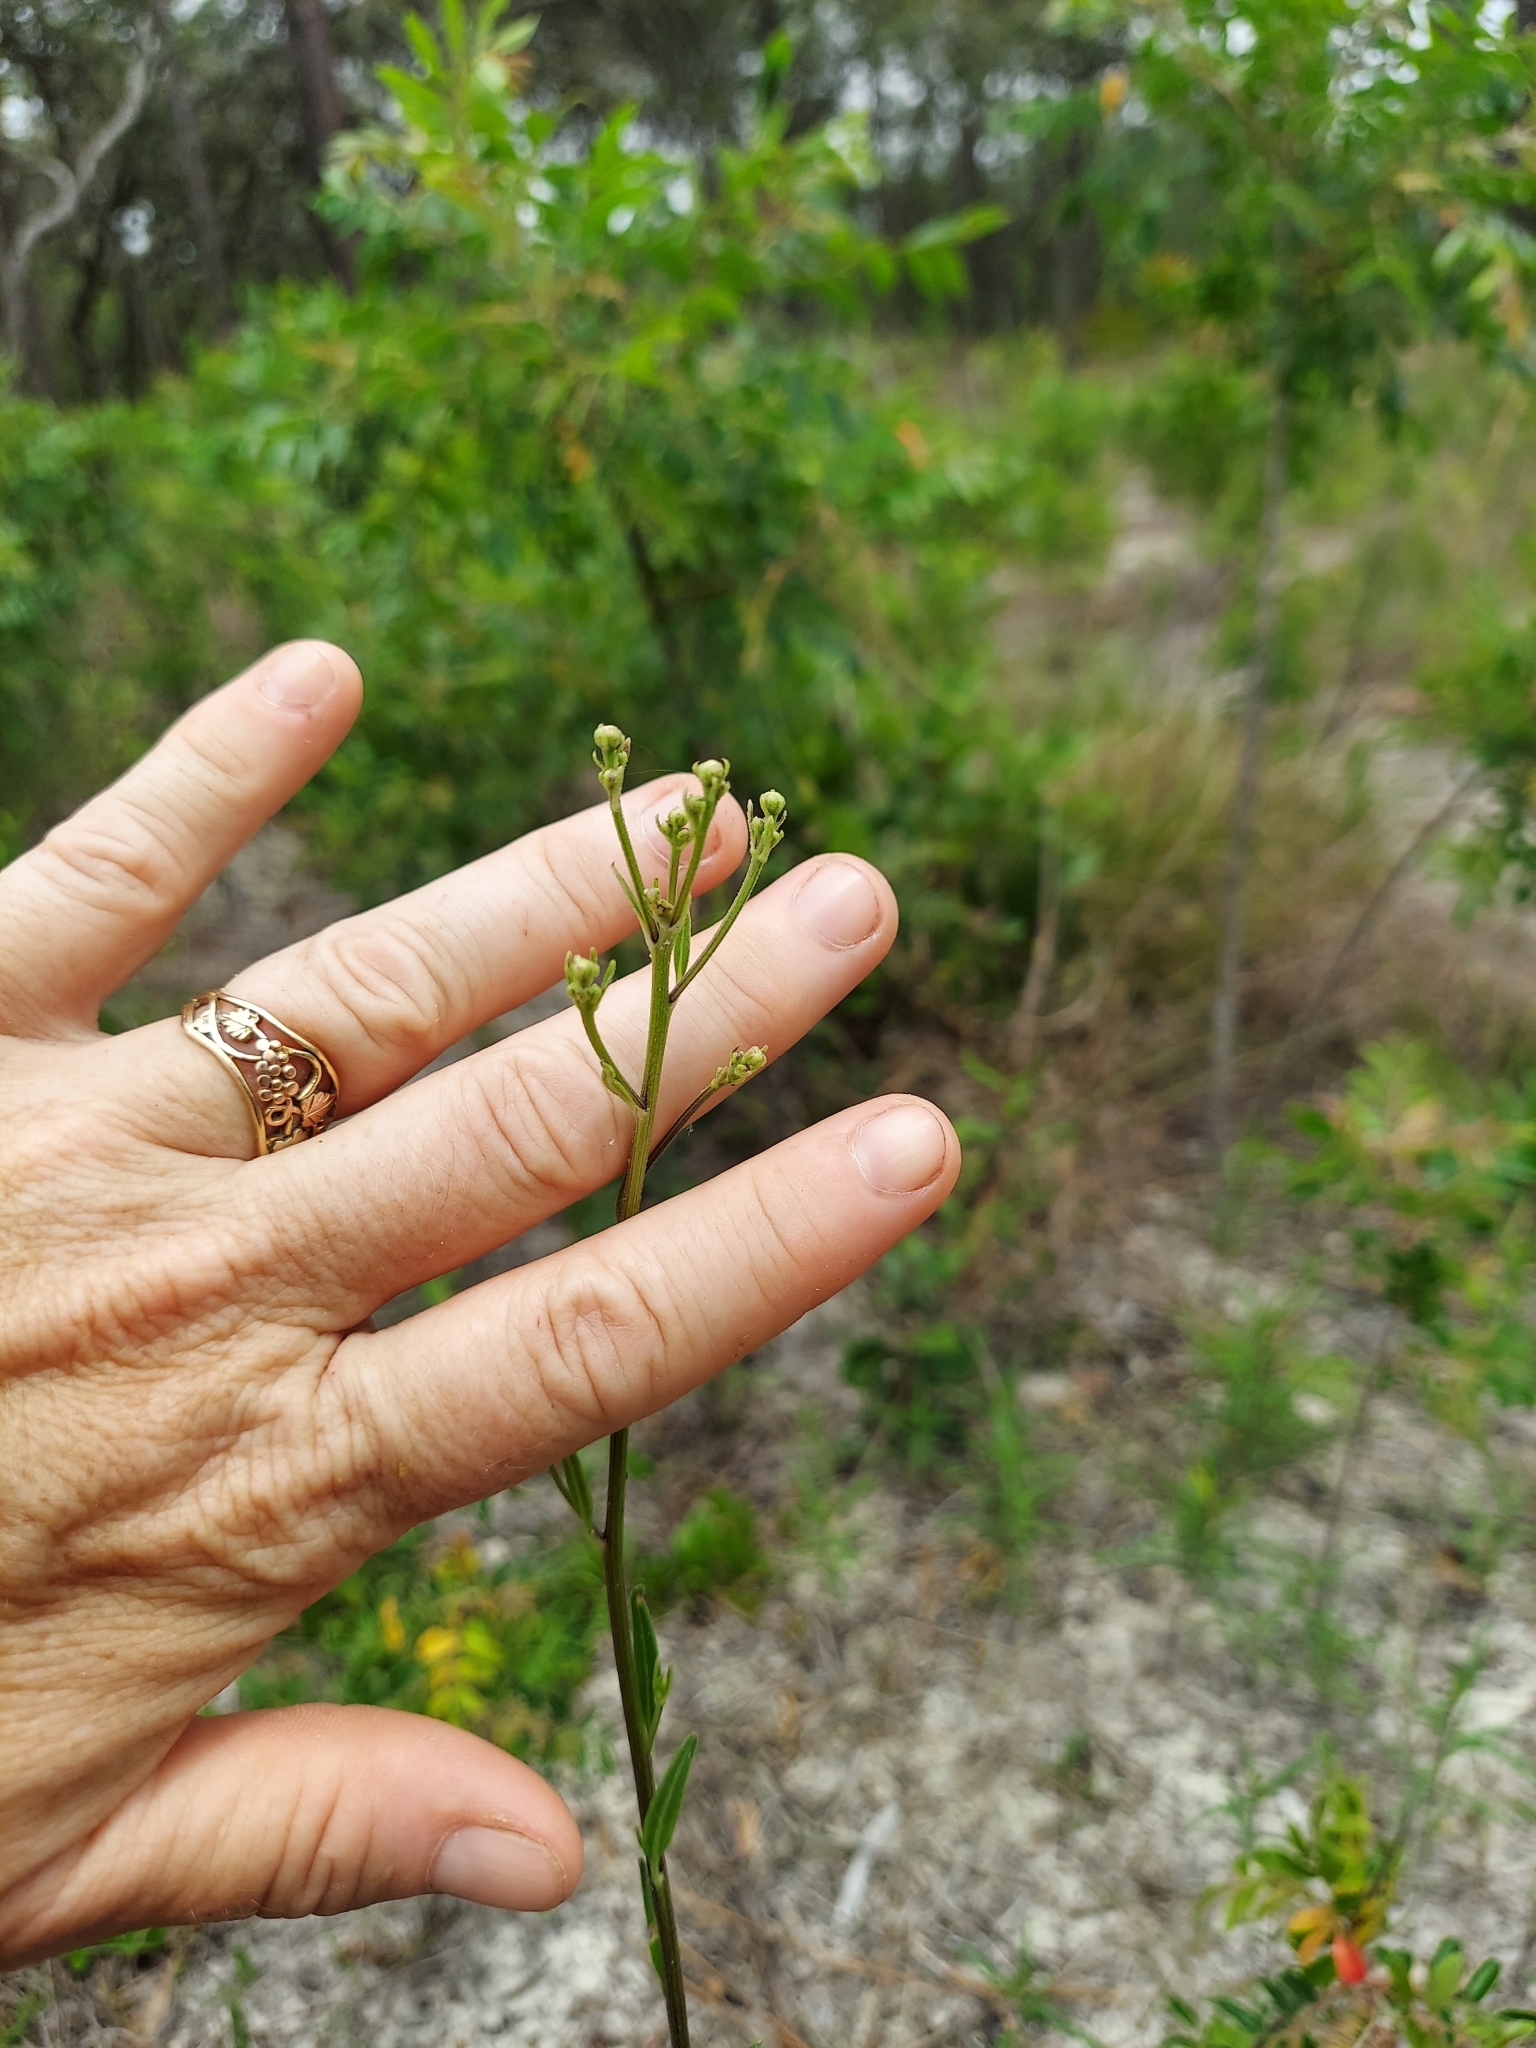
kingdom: Plantae
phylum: Tracheophyta
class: Magnoliopsida
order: Asterales
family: Asteraceae
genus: Palafoxia
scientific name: Palafoxia integrifolia
